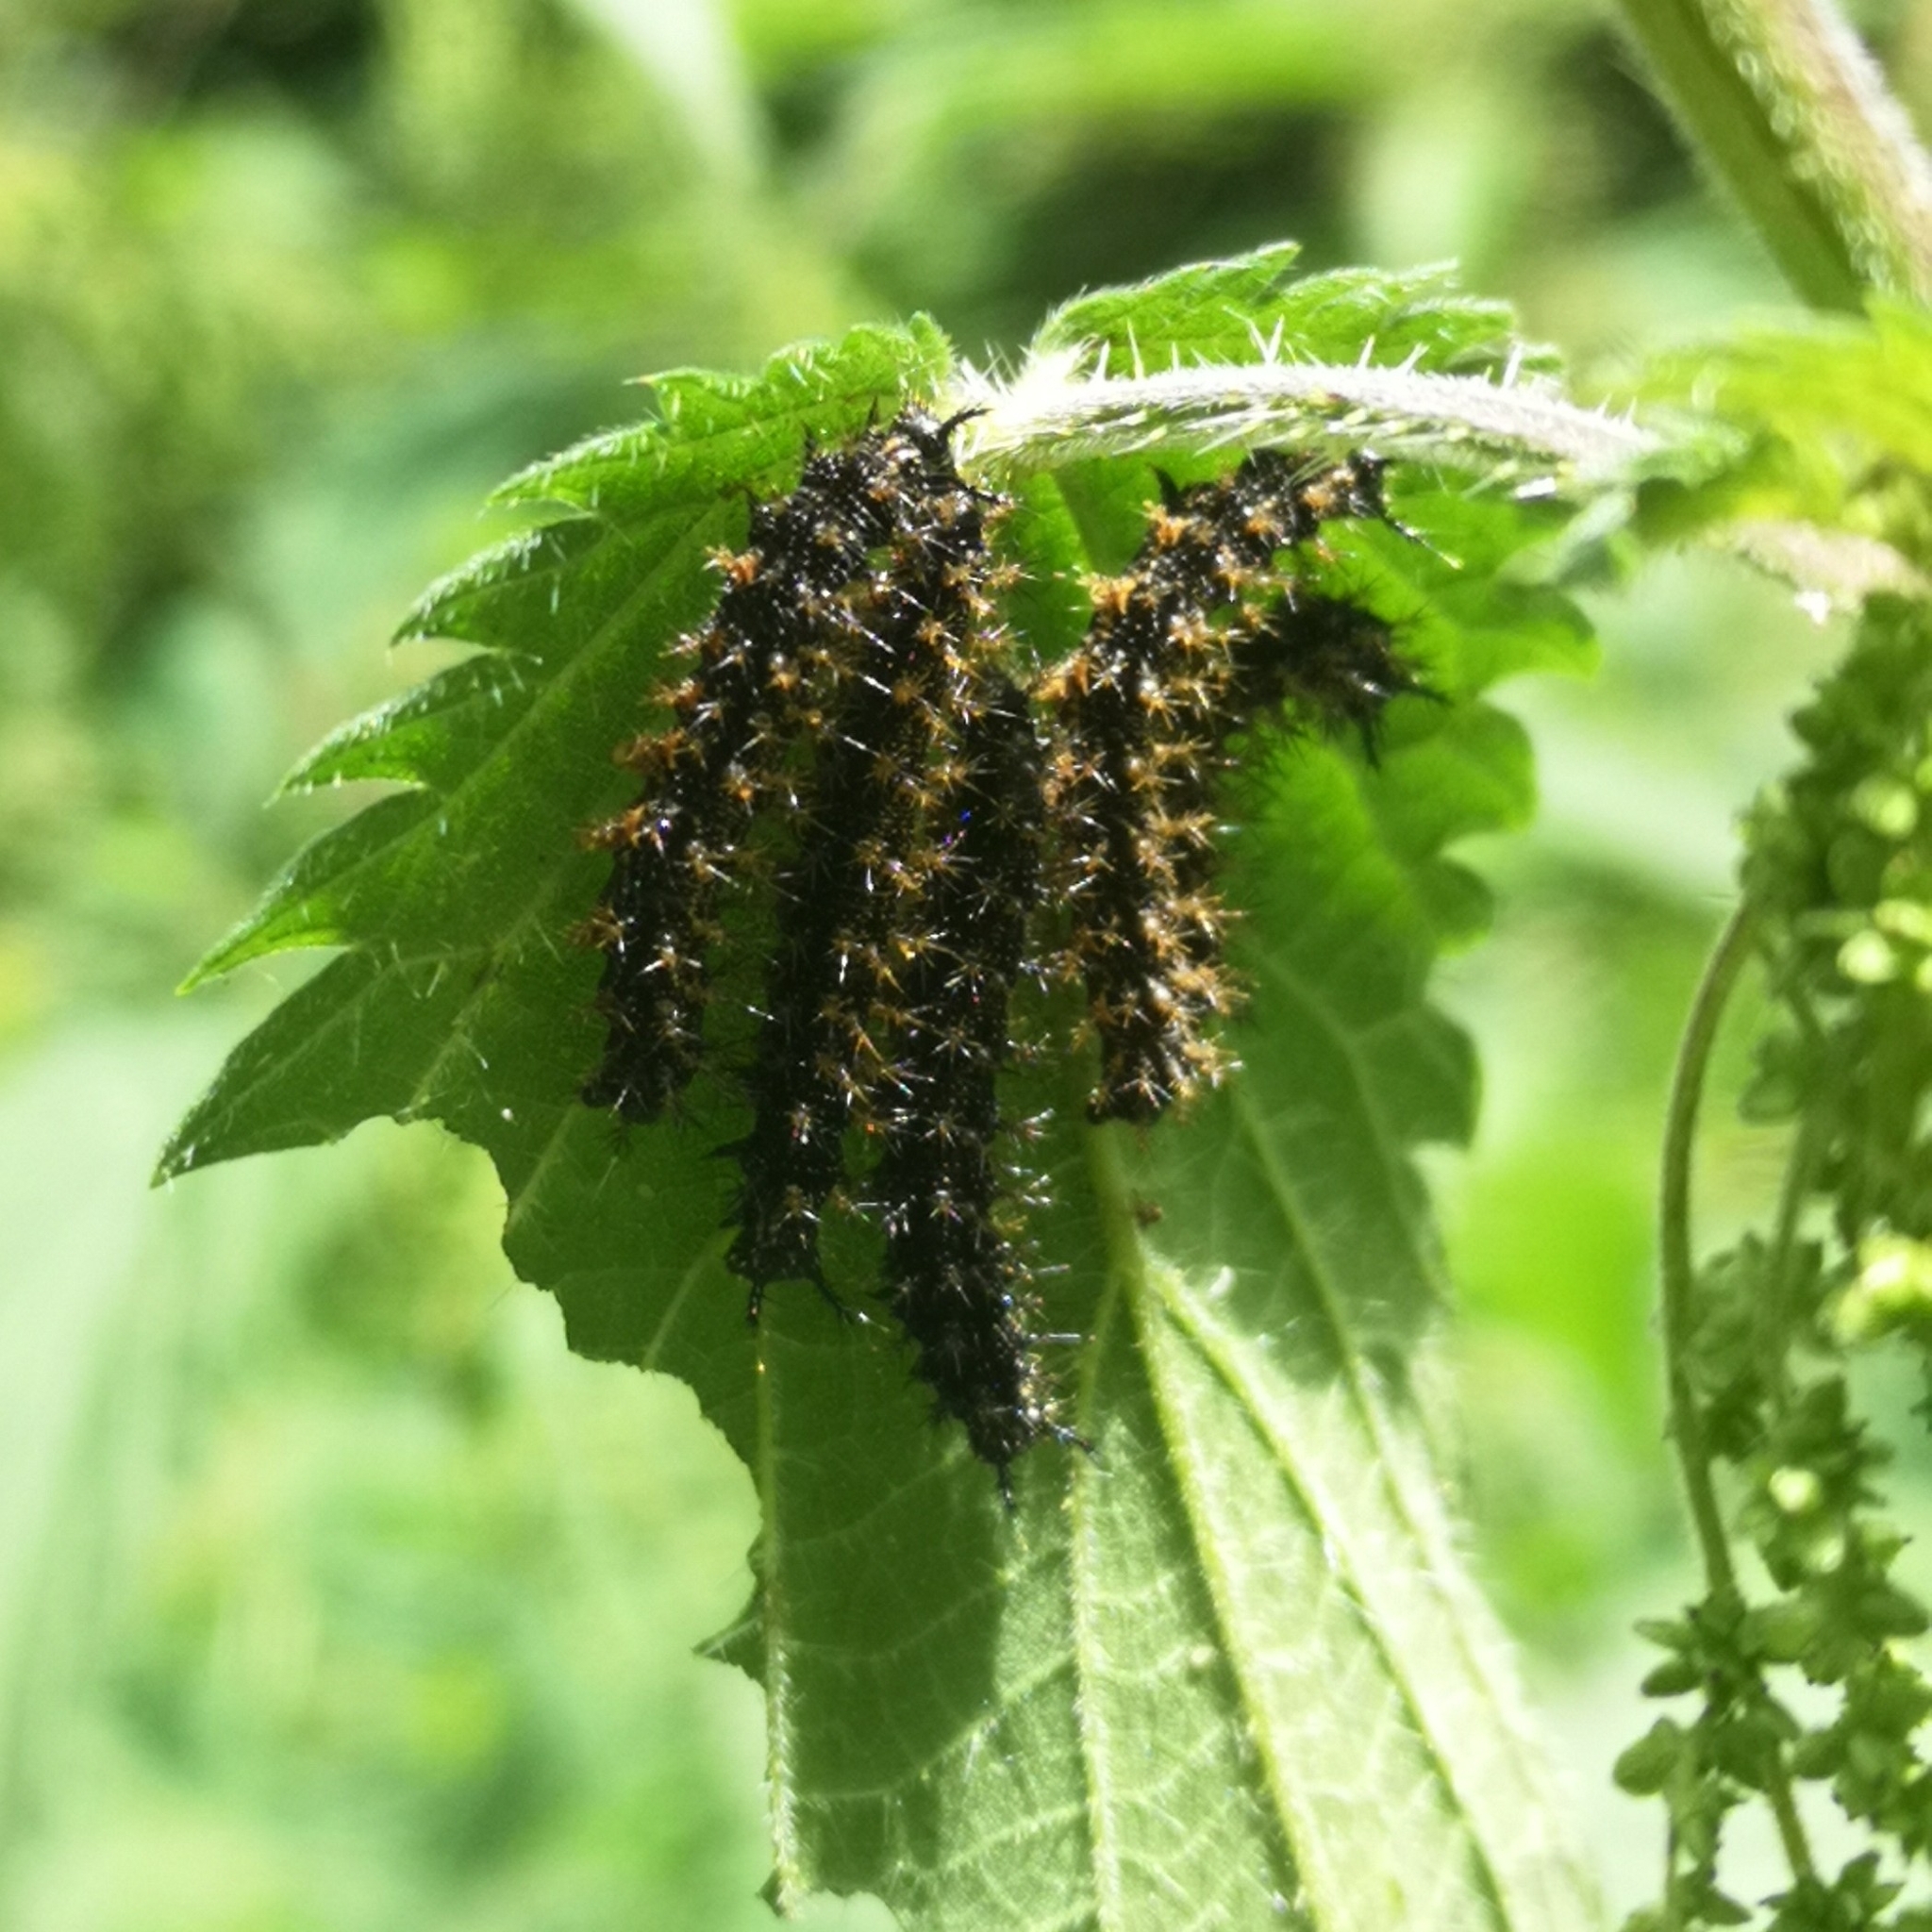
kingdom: Animalia
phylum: Arthropoda
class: Insecta
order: Lepidoptera
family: Nymphalidae
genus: Araschnia
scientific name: Araschnia levana
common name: Map butterfly
